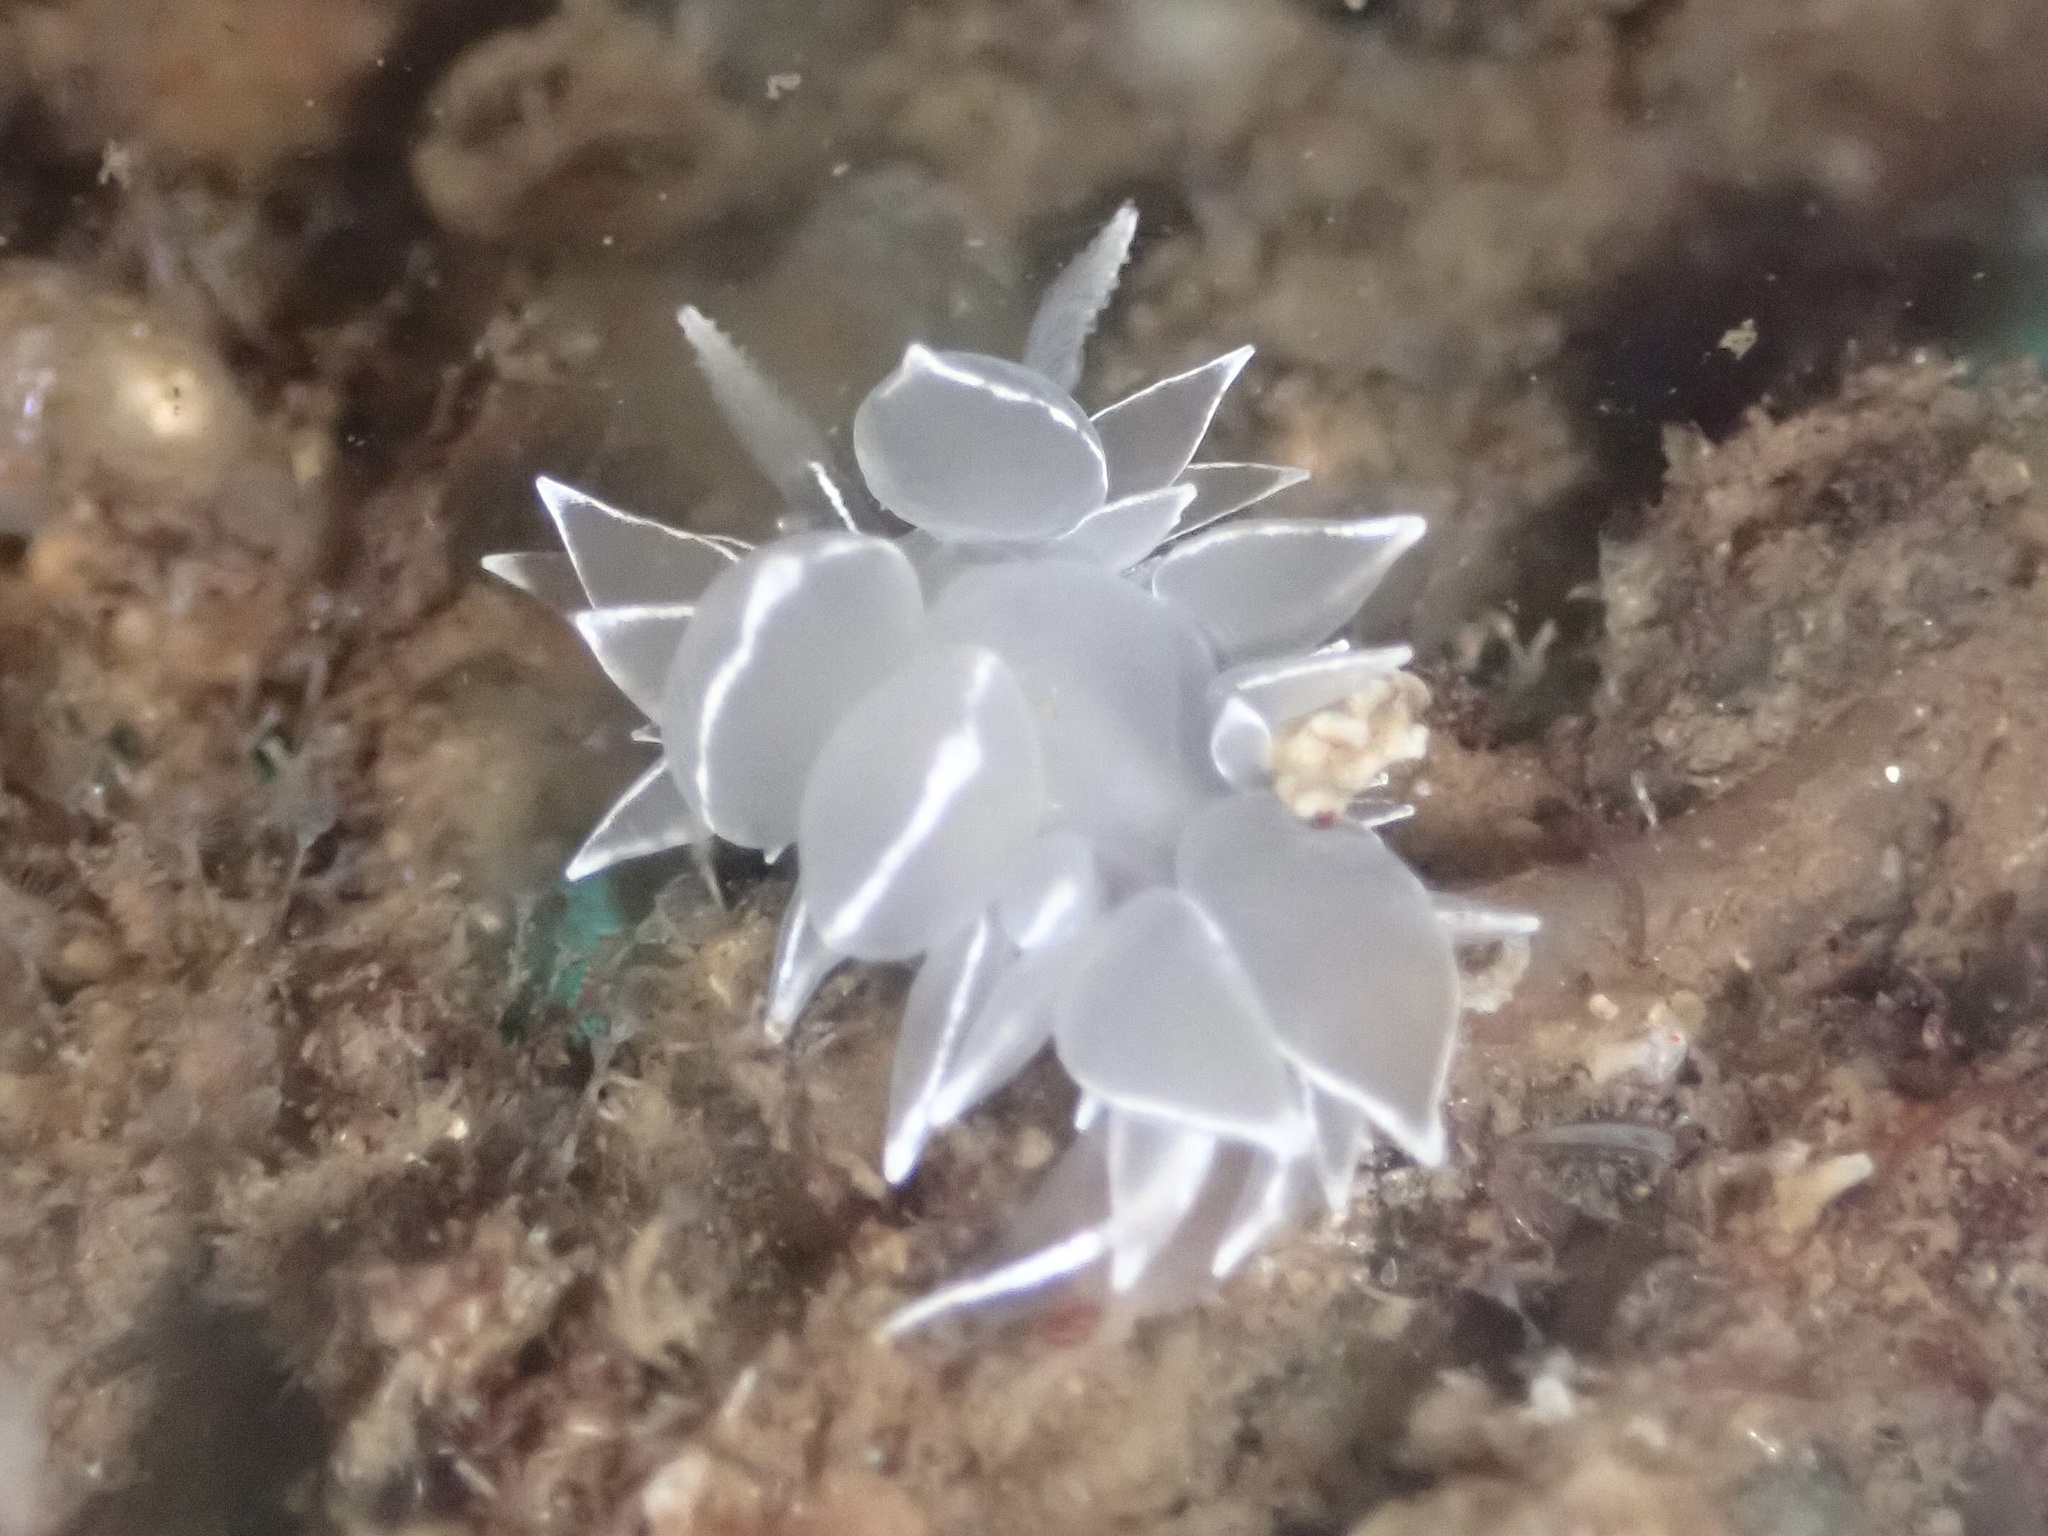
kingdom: Animalia
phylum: Mollusca
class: Gastropoda
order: Nudibranchia
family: Dironidae
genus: Dirona
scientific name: Dirona albolineata
